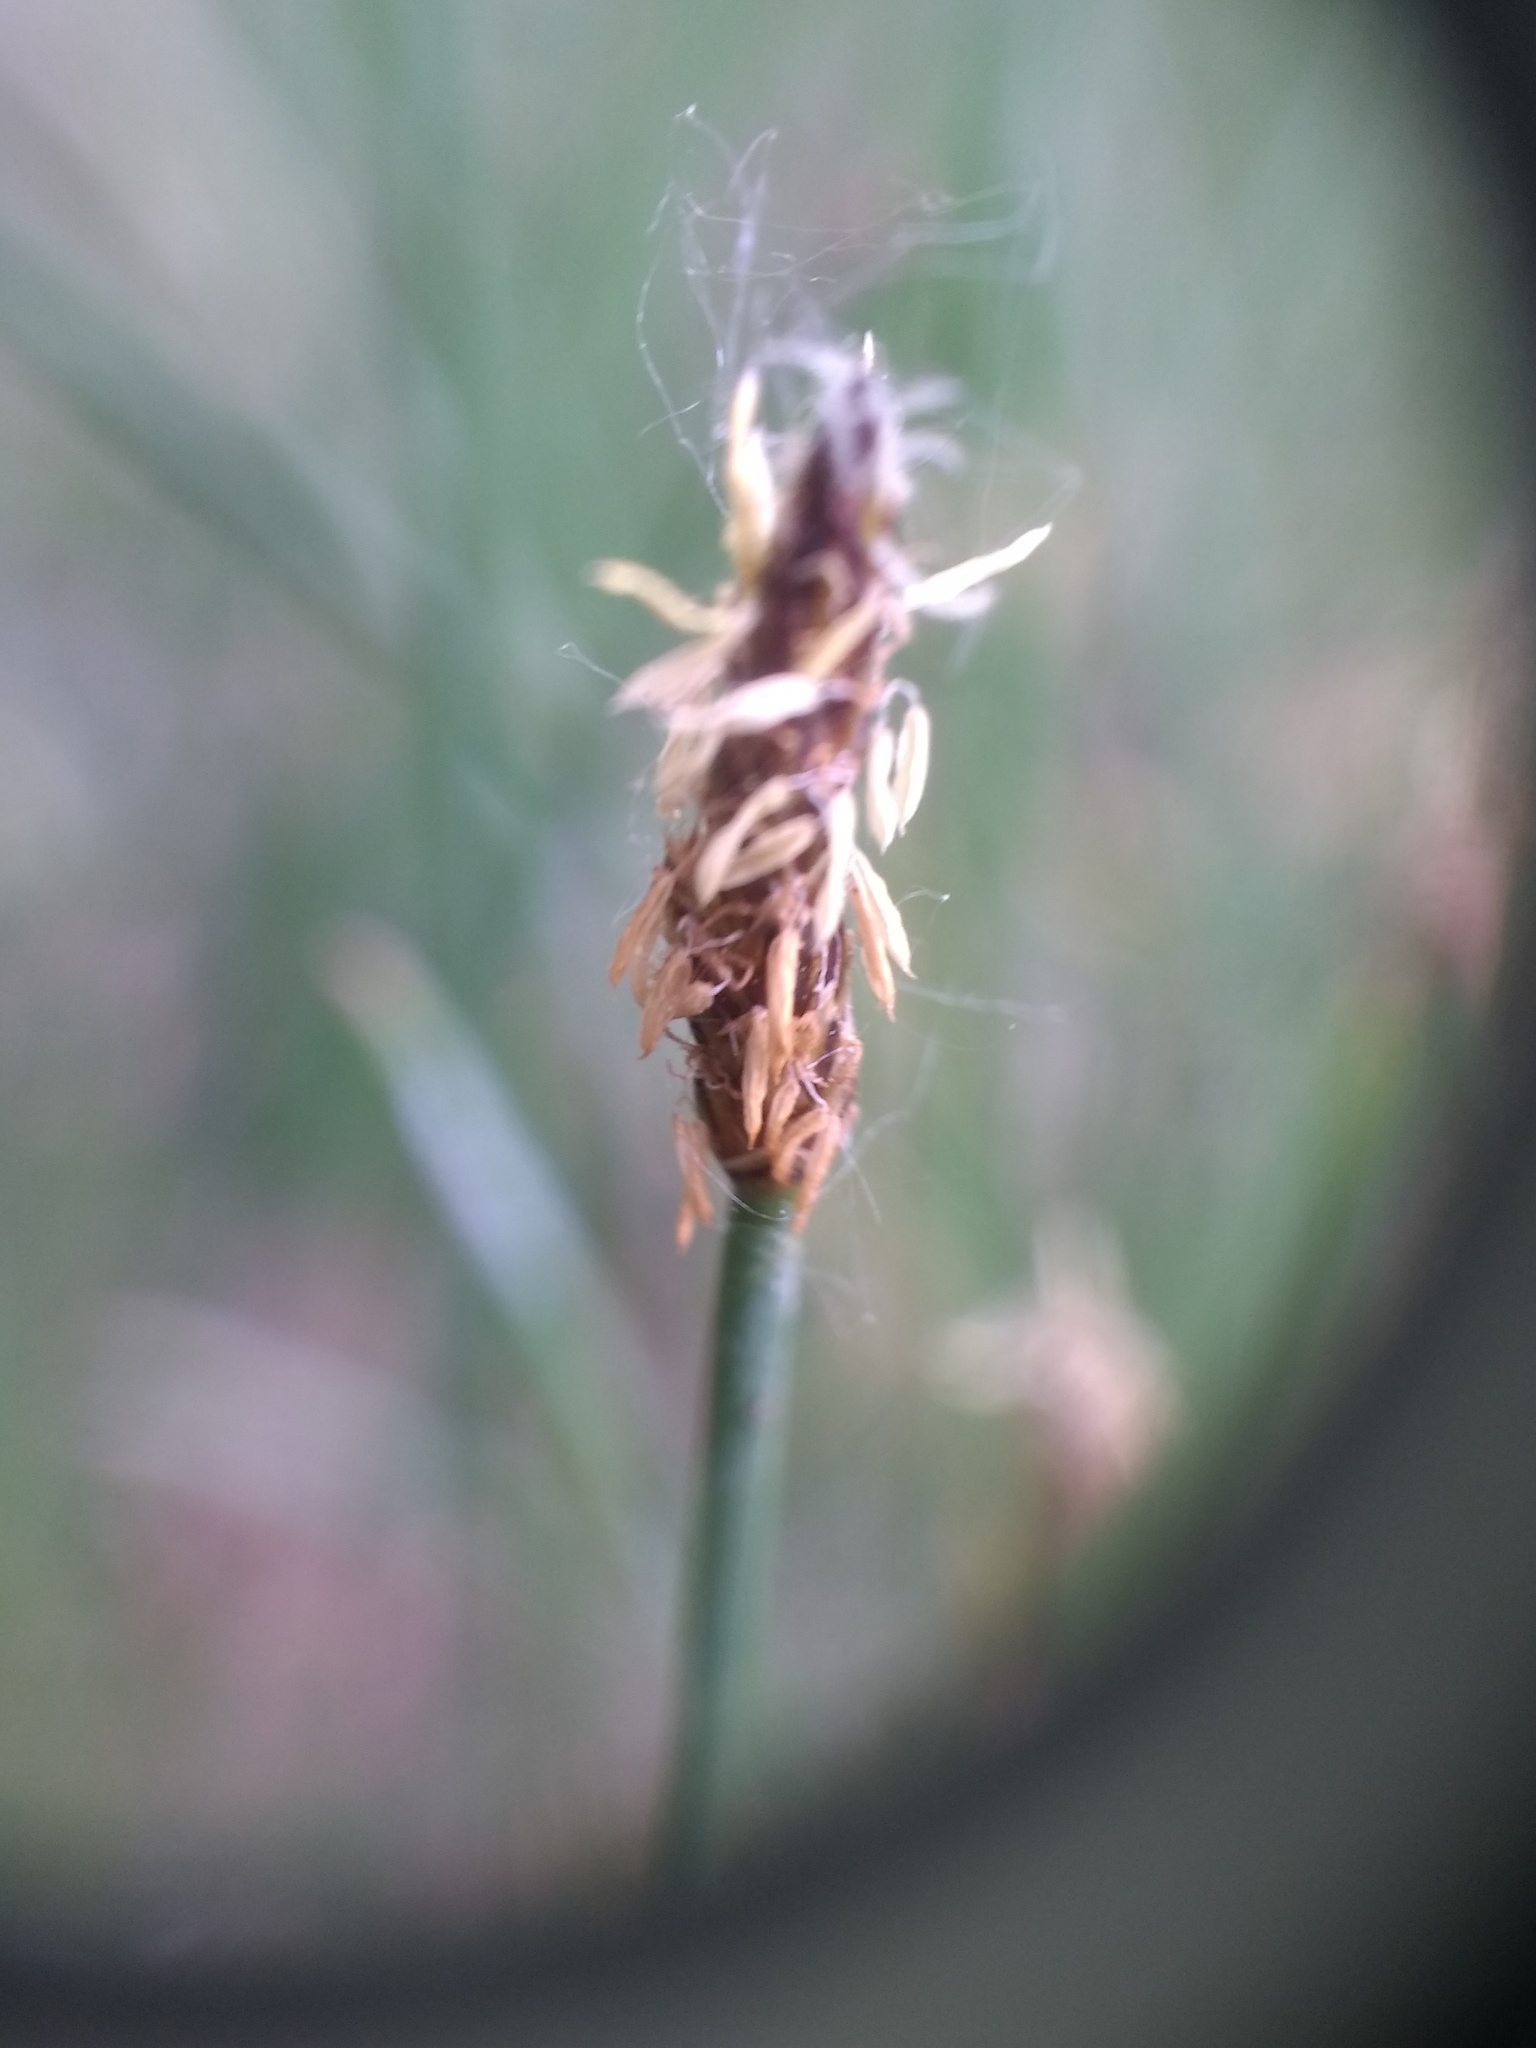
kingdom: Plantae
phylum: Tracheophyta
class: Liliopsida
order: Poales
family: Cyperaceae
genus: Eleocharis
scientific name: Eleocharis palustris
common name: Common spike-rush
